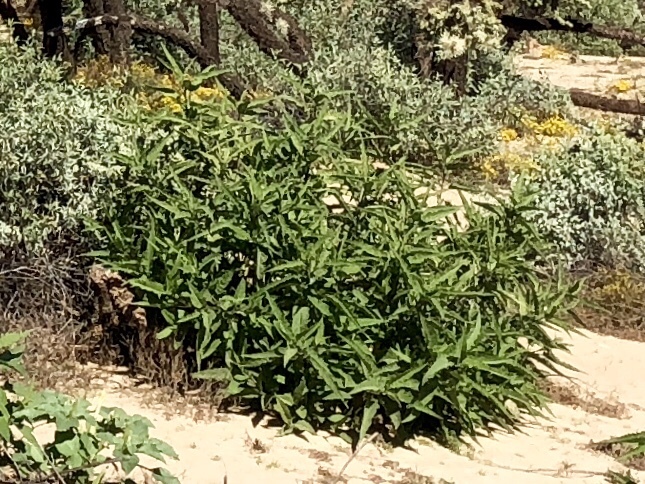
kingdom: Plantae
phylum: Tracheophyta
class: Magnoliopsida
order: Asterales
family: Asteraceae
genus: Ambrosia
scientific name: Ambrosia ambrosioides
